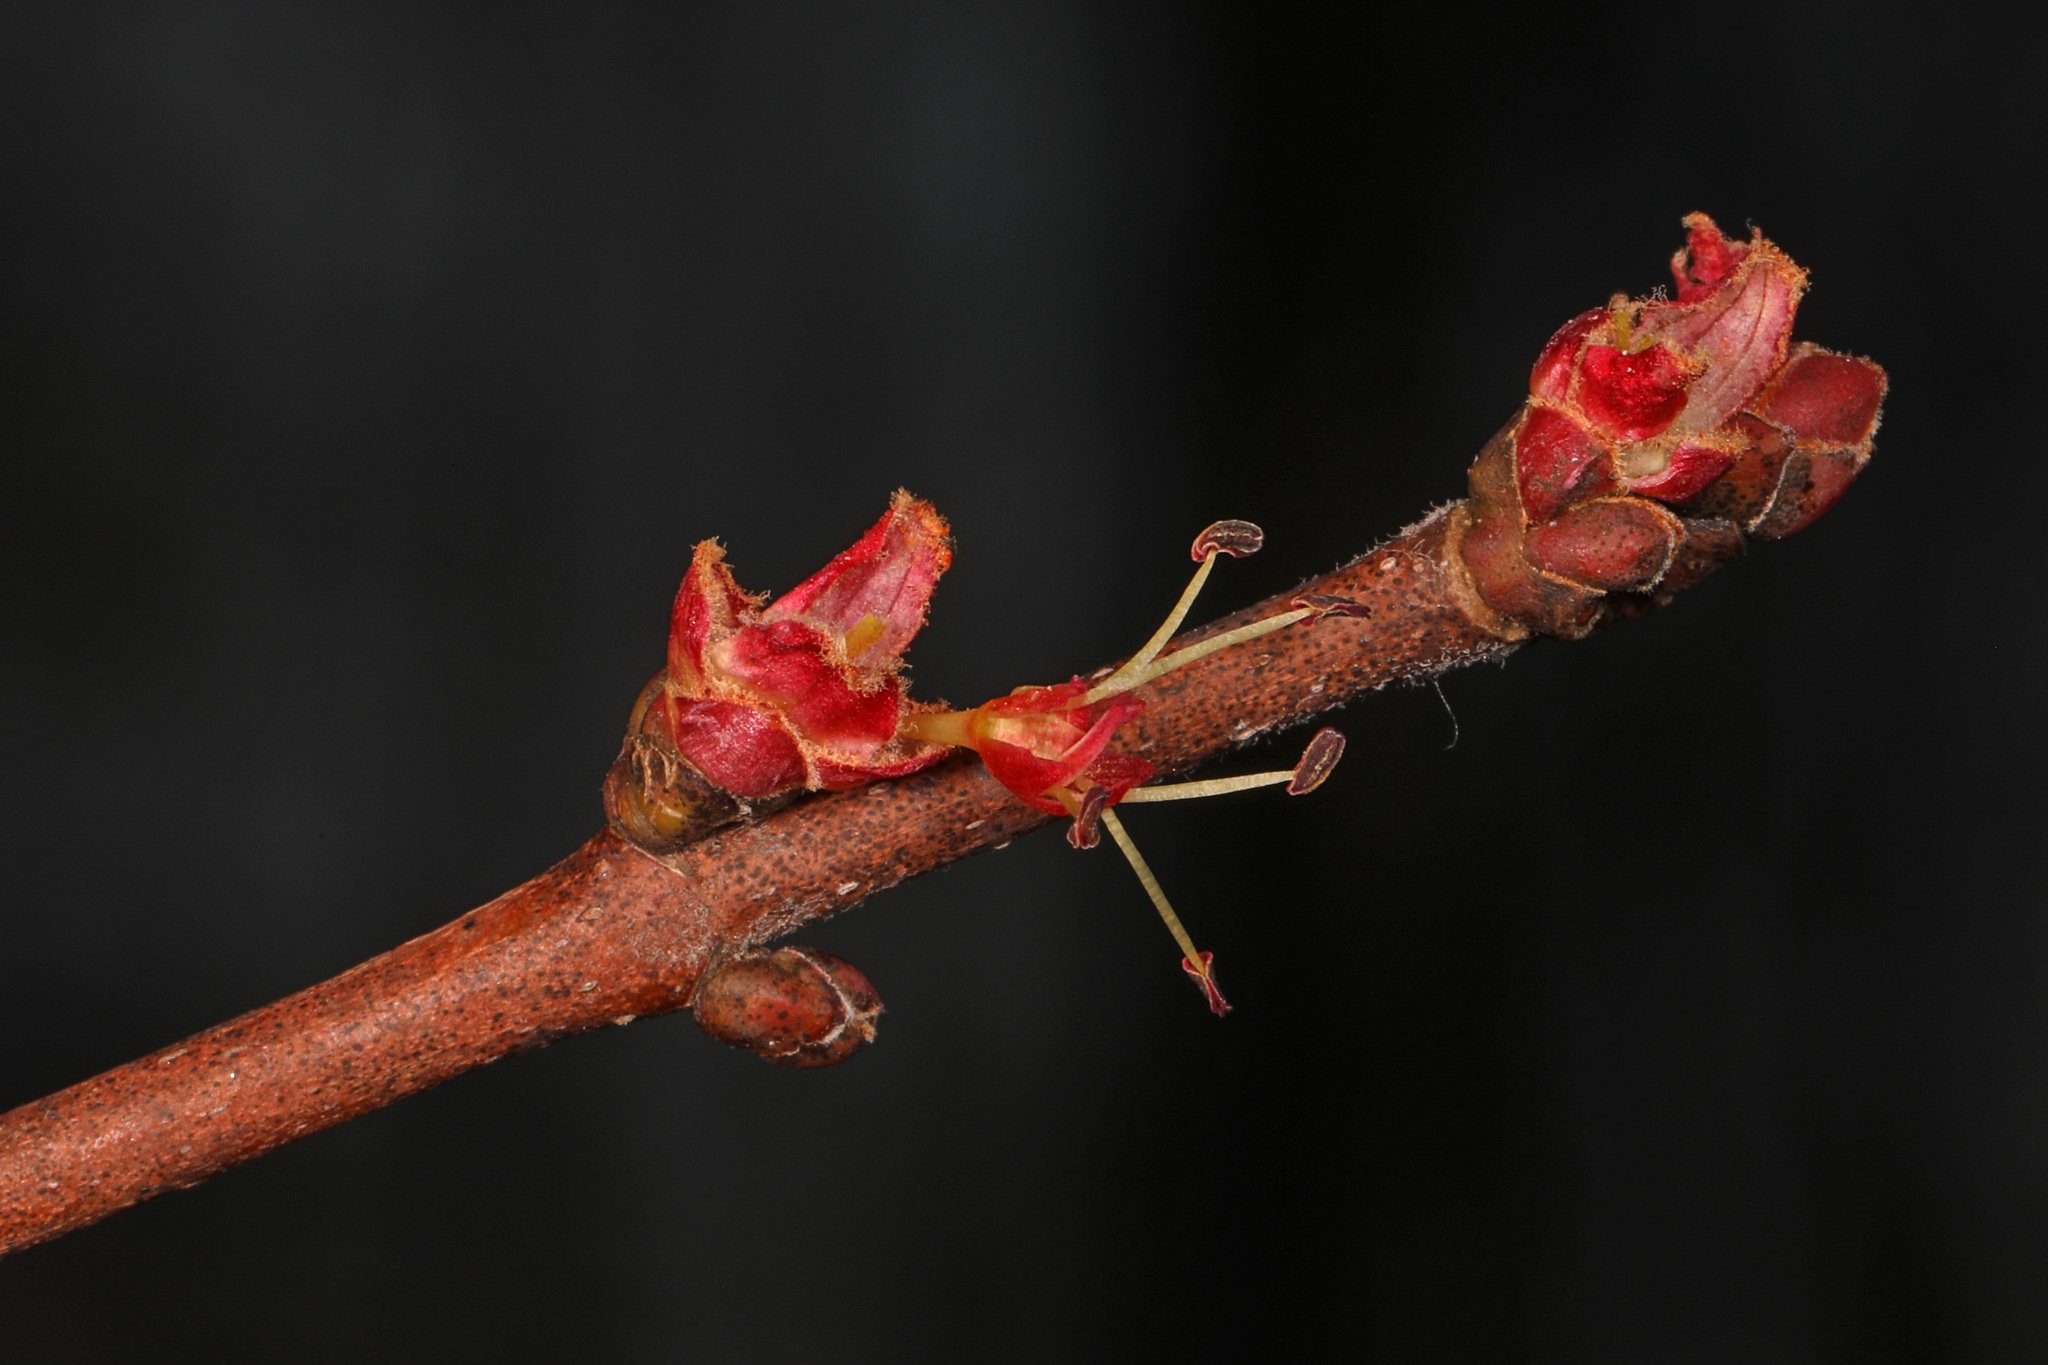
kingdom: Plantae
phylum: Tracheophyta
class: Magnoliopsida
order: Sapindales
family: Sapindaceae
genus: Acer
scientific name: Acer rubrum
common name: Red maple
